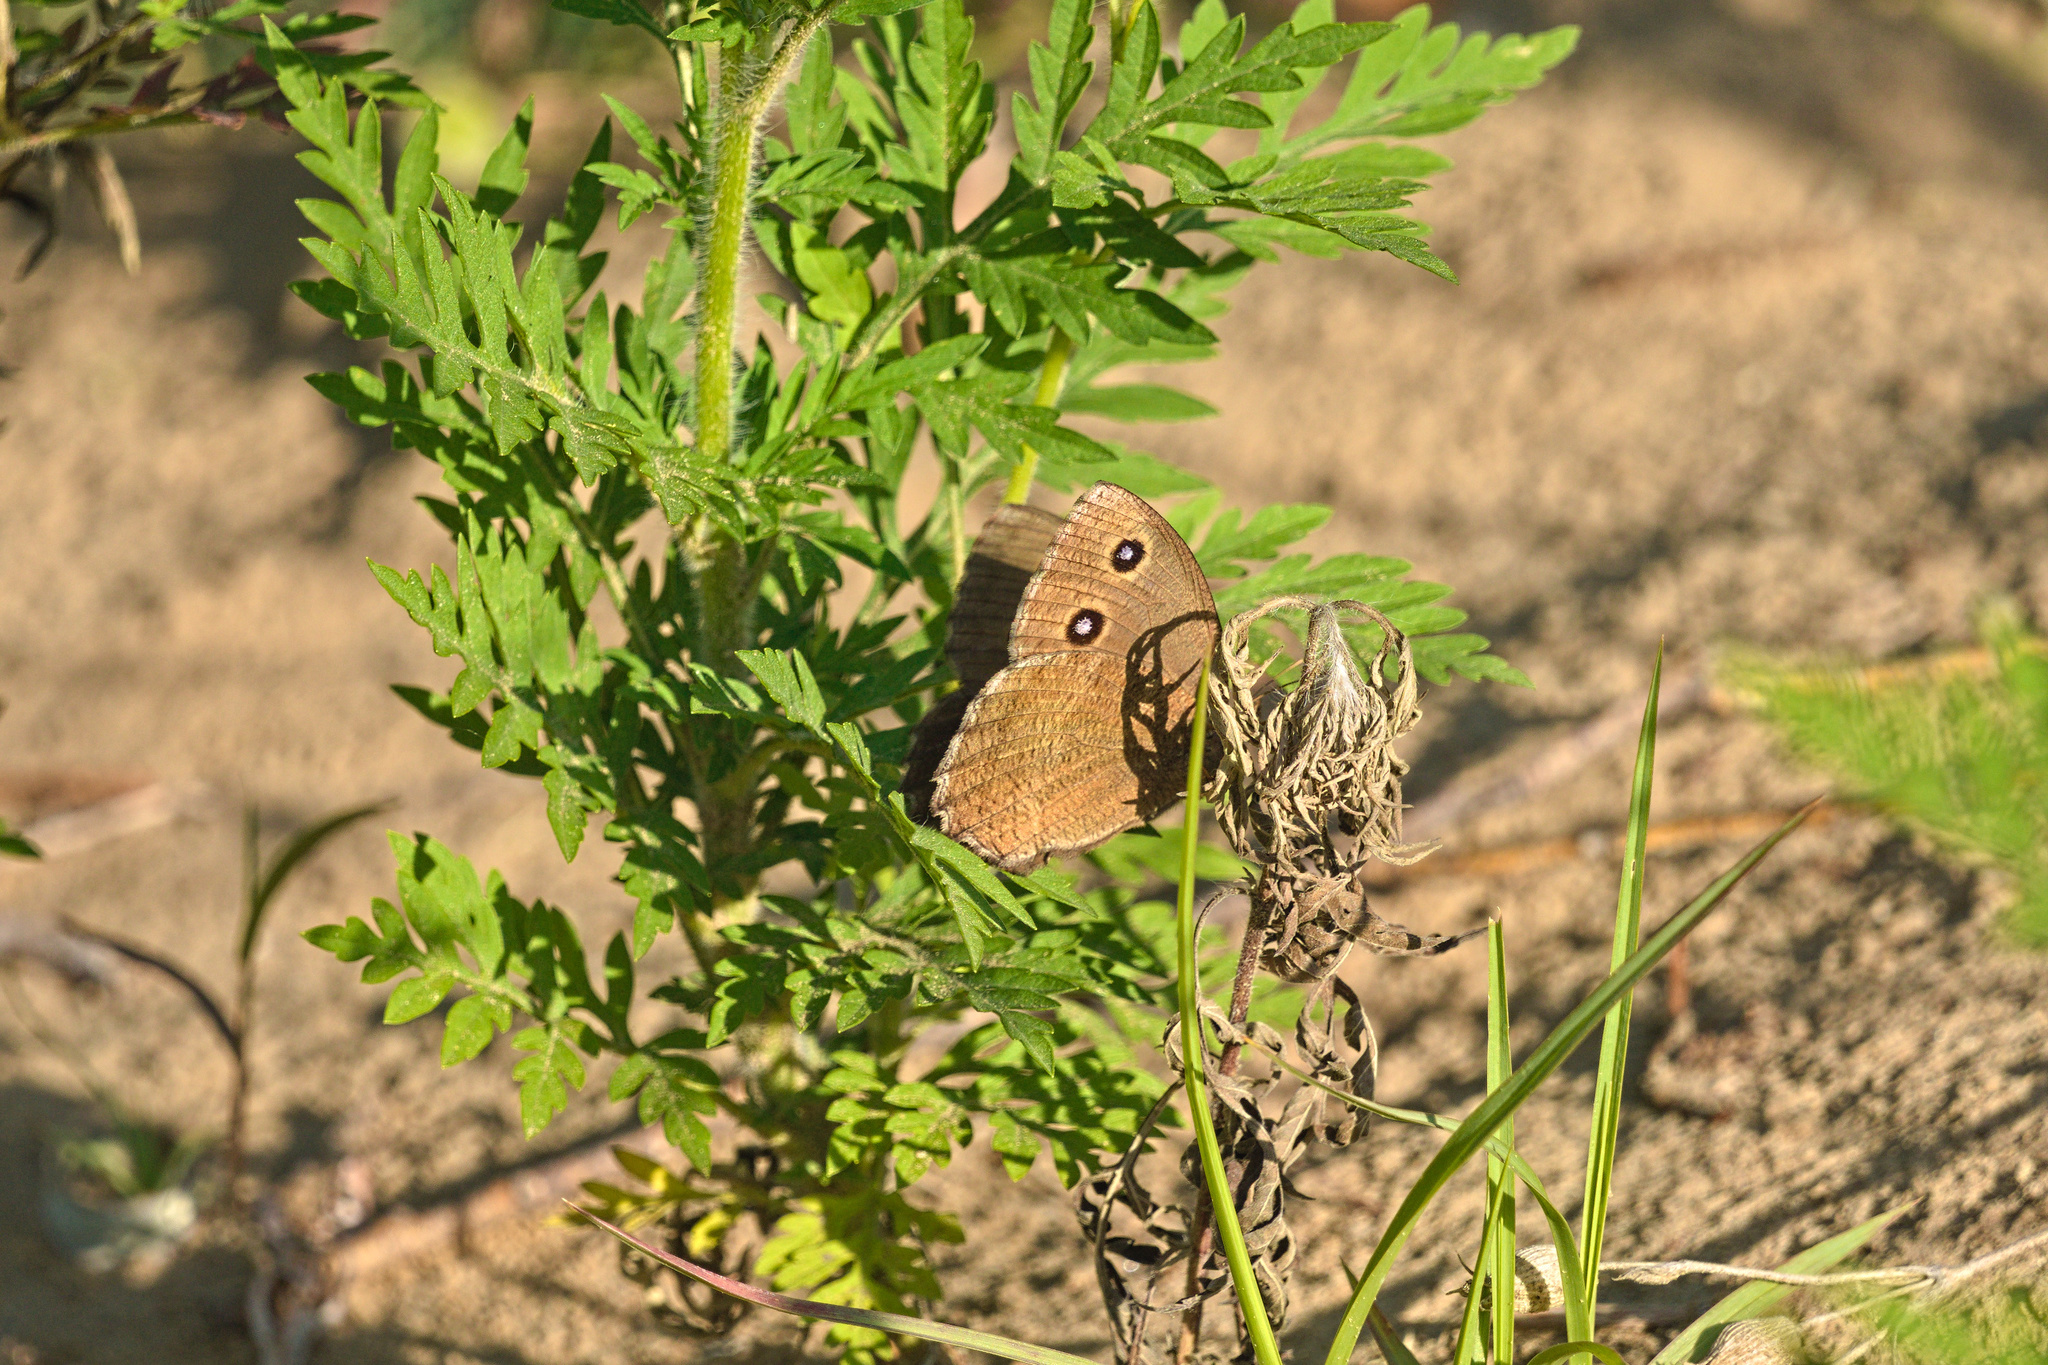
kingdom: Animalia
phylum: Arthropoda
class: Insecta
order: Lepidoptera
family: Nymphalidae
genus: Minois
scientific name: Minois dryas
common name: Dryad
